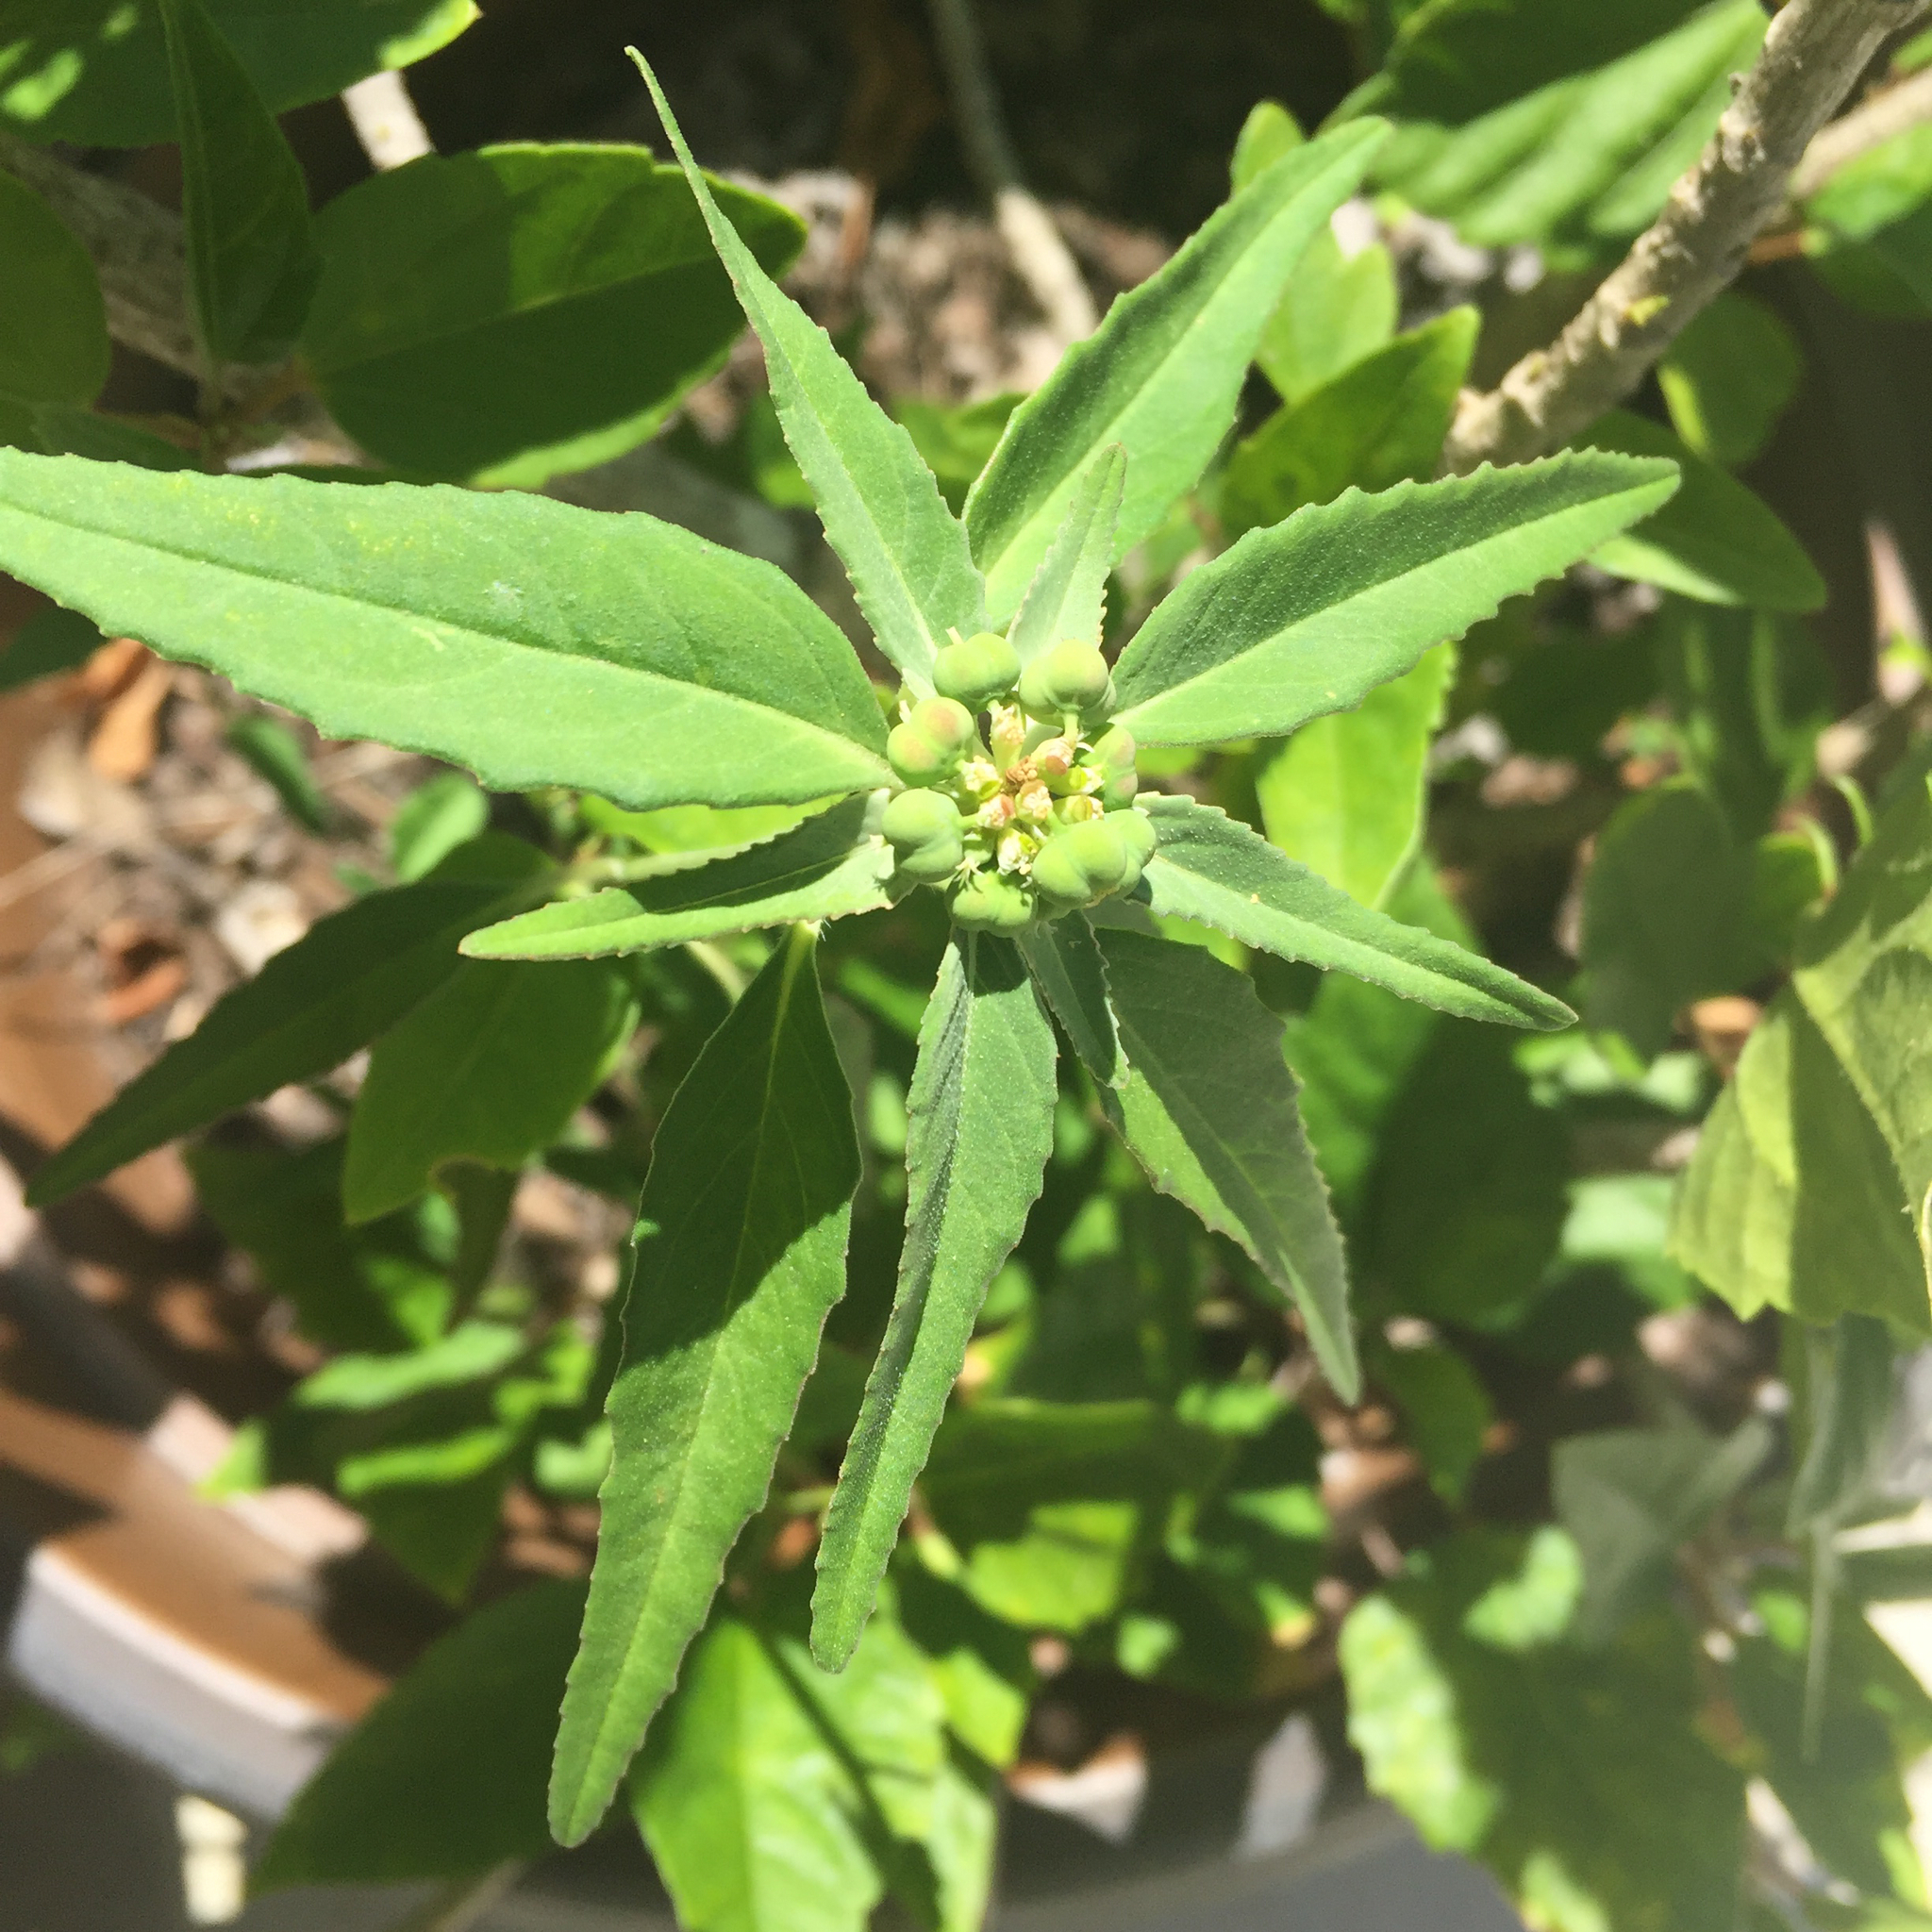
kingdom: Plantae
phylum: Tracheophyta
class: Magnoliopsida
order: Malpighiales
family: Euphorbiaceae
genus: Euphorbia
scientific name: Euphorbia dentata
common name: Dentate spurge
